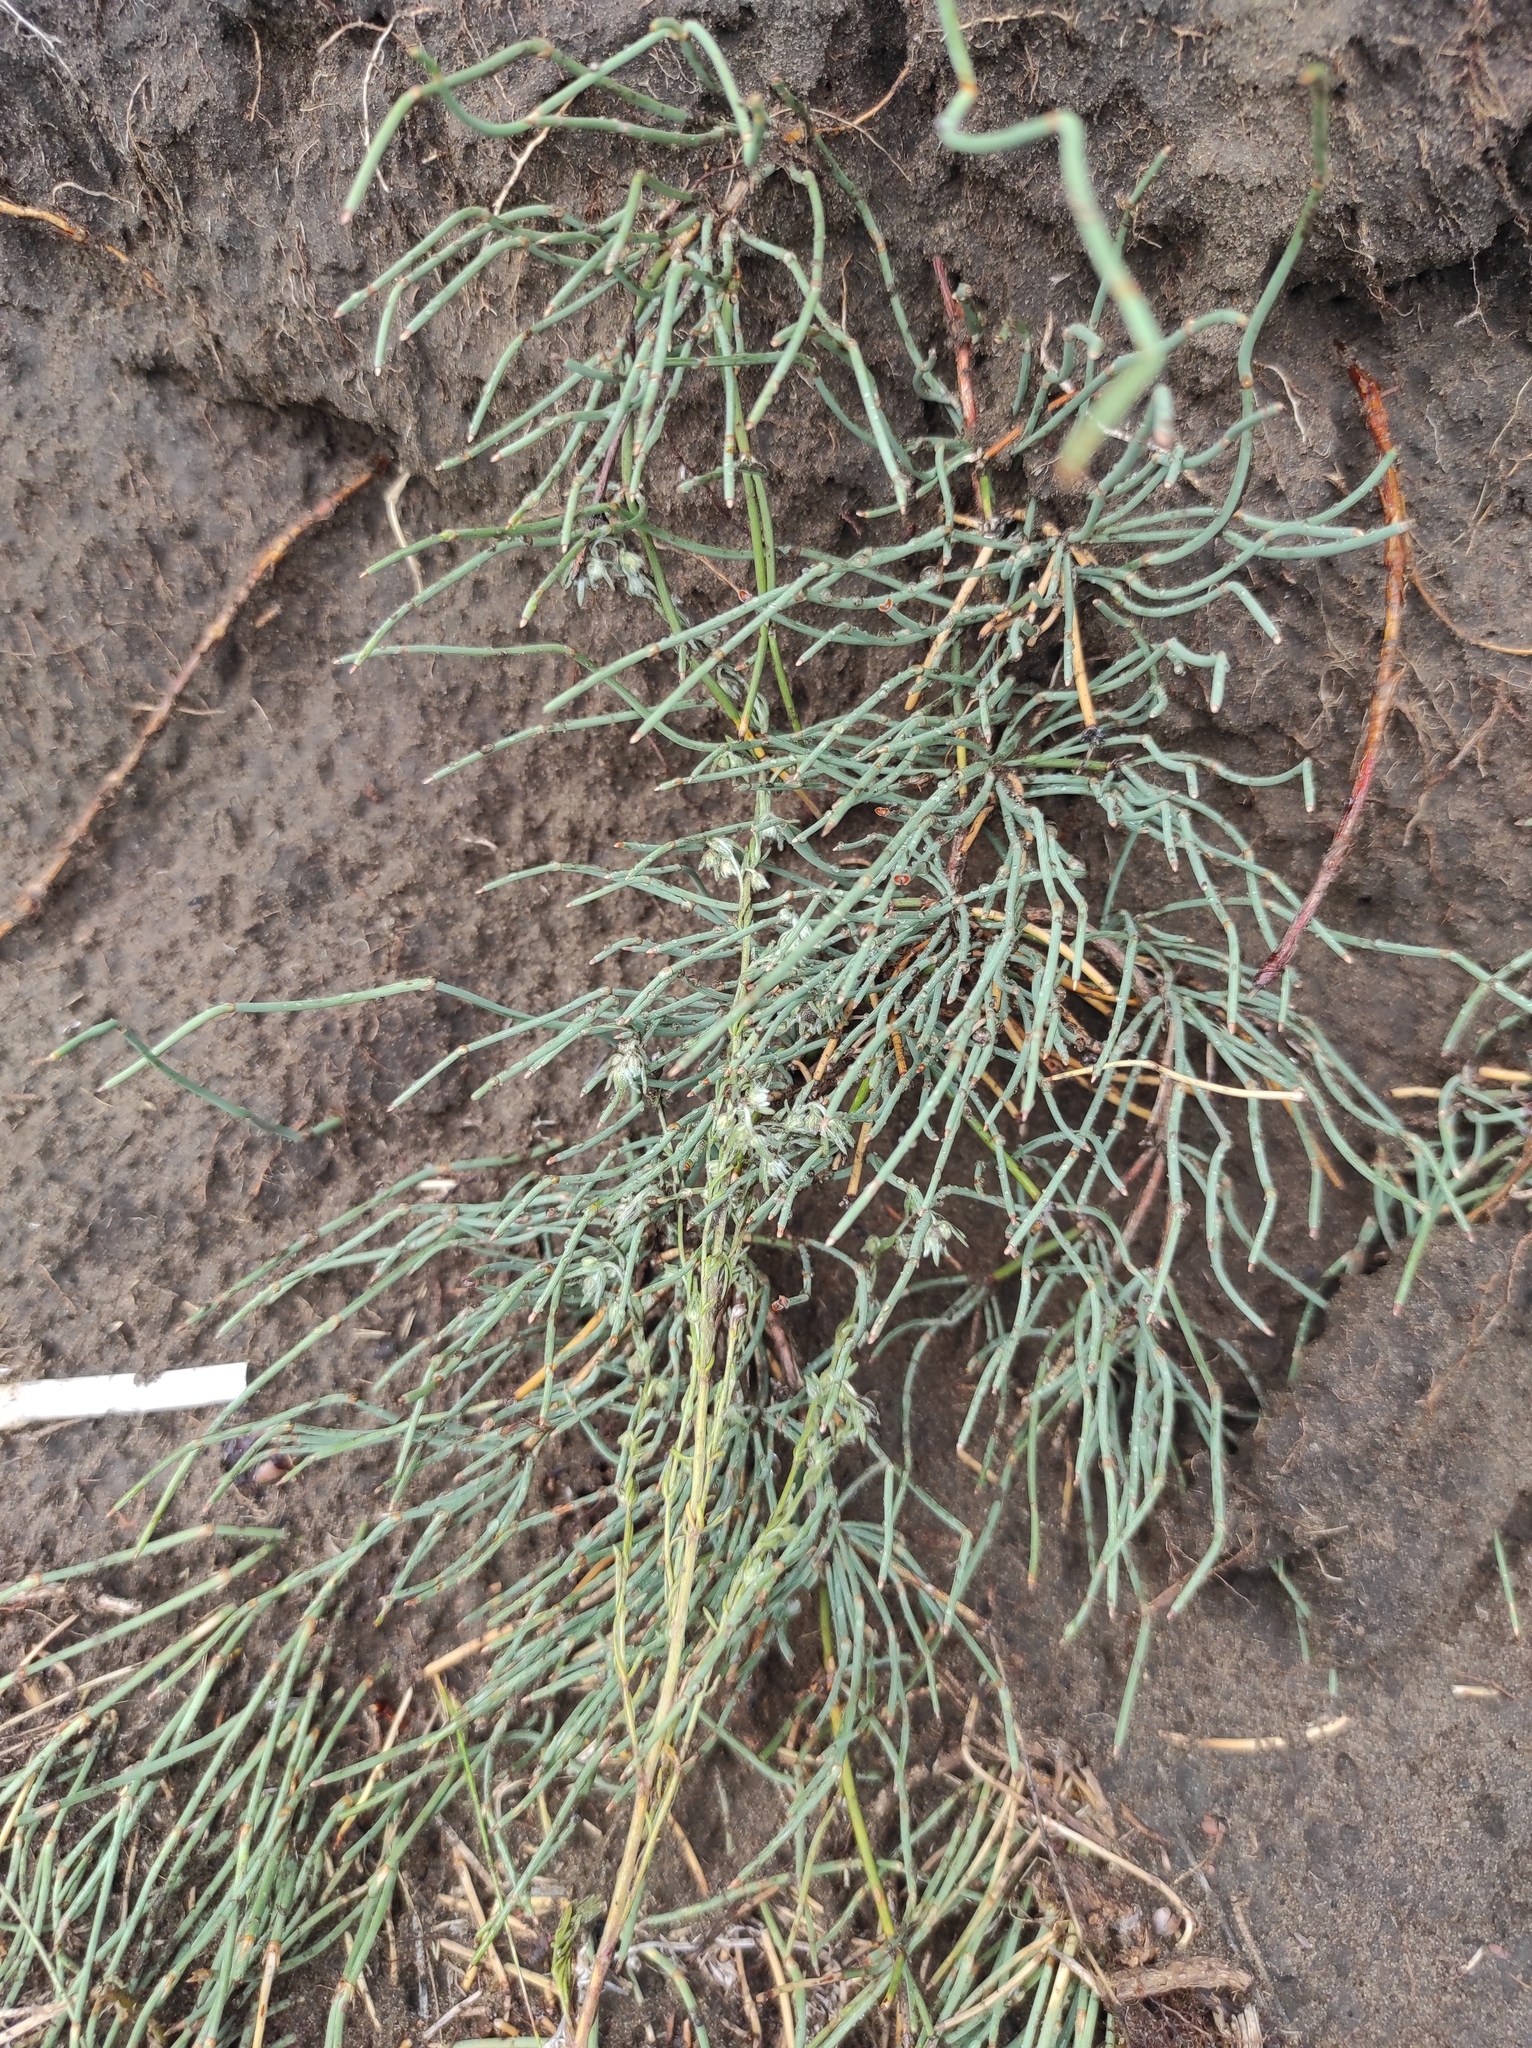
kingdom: Plantae
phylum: Tracheophyta
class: Gnetopsida
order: Ephedrales
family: Ephedraceae
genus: Ephedra
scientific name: Ephedra distachya
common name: Sea grape
